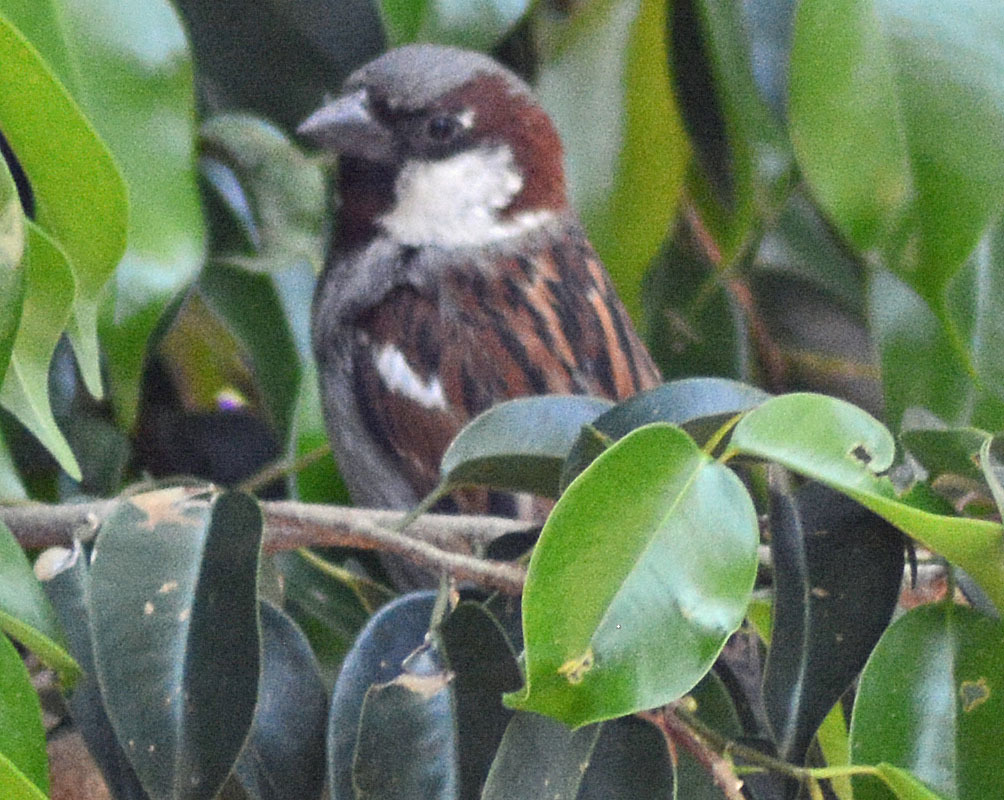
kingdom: Animalia
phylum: Chordata
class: Aves
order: Passeriformes
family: Passeridae
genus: Passer
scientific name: Passer domesticus
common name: House sparrow
